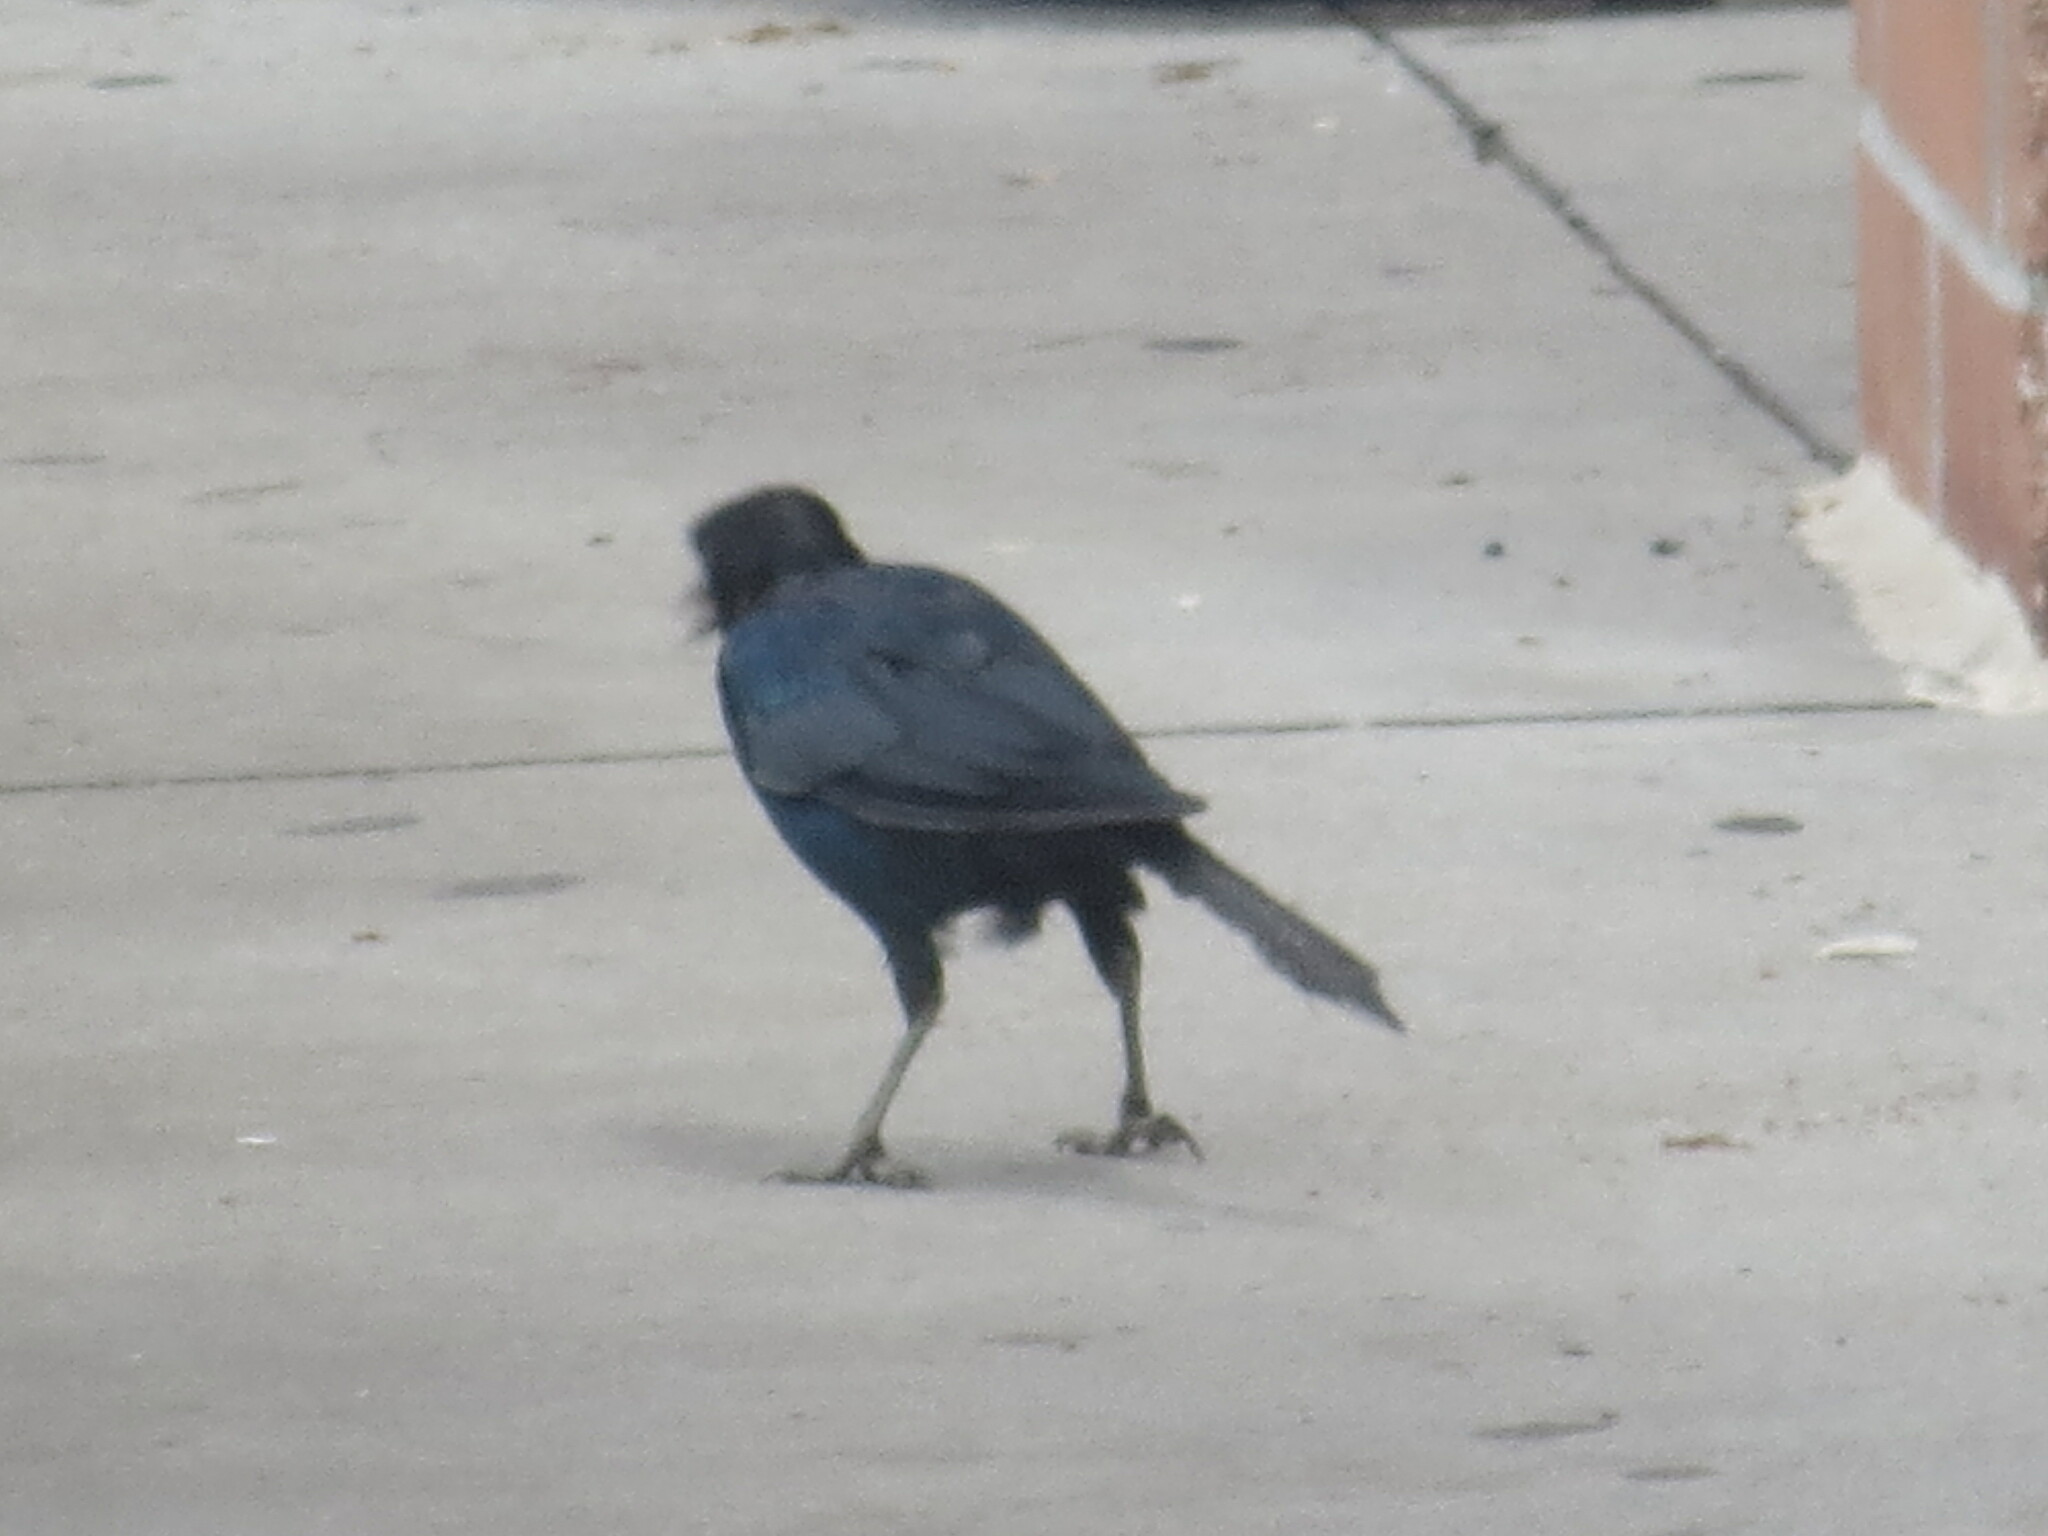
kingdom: Animalia
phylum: Chordata
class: Aves
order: Passeriformes
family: Icteridae
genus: Quiscalus
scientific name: Quiscalus major
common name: Boat-tailed grackle
